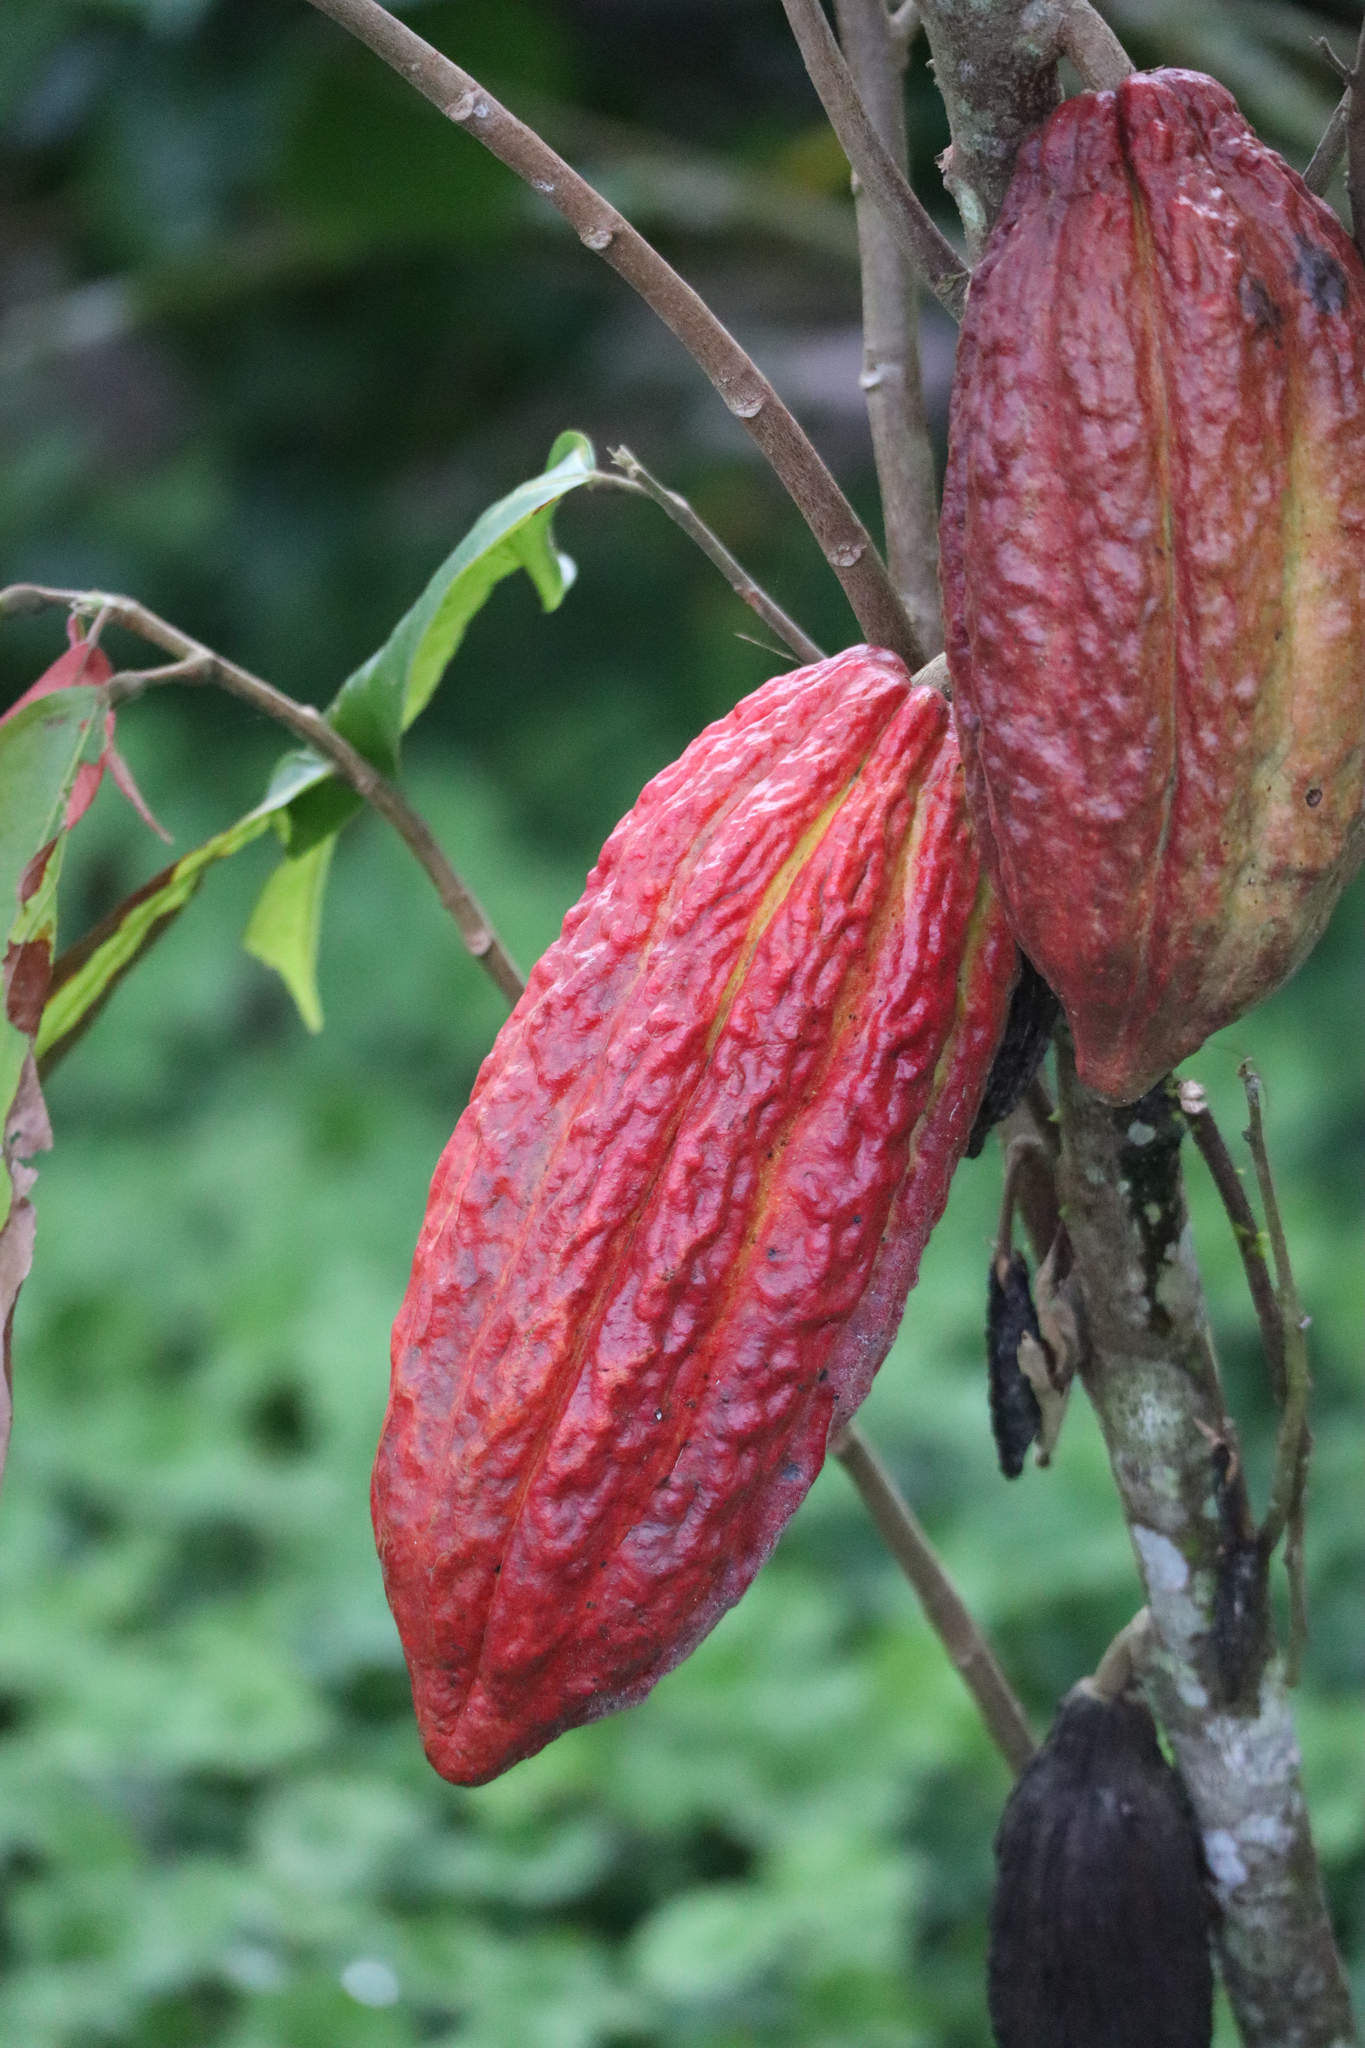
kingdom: Plantae
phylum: Tracheophyta
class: Magnoliopsida
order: Malvales
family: Malvaceae
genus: Theobroma
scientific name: Theobroma cacao
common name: Cocoa
